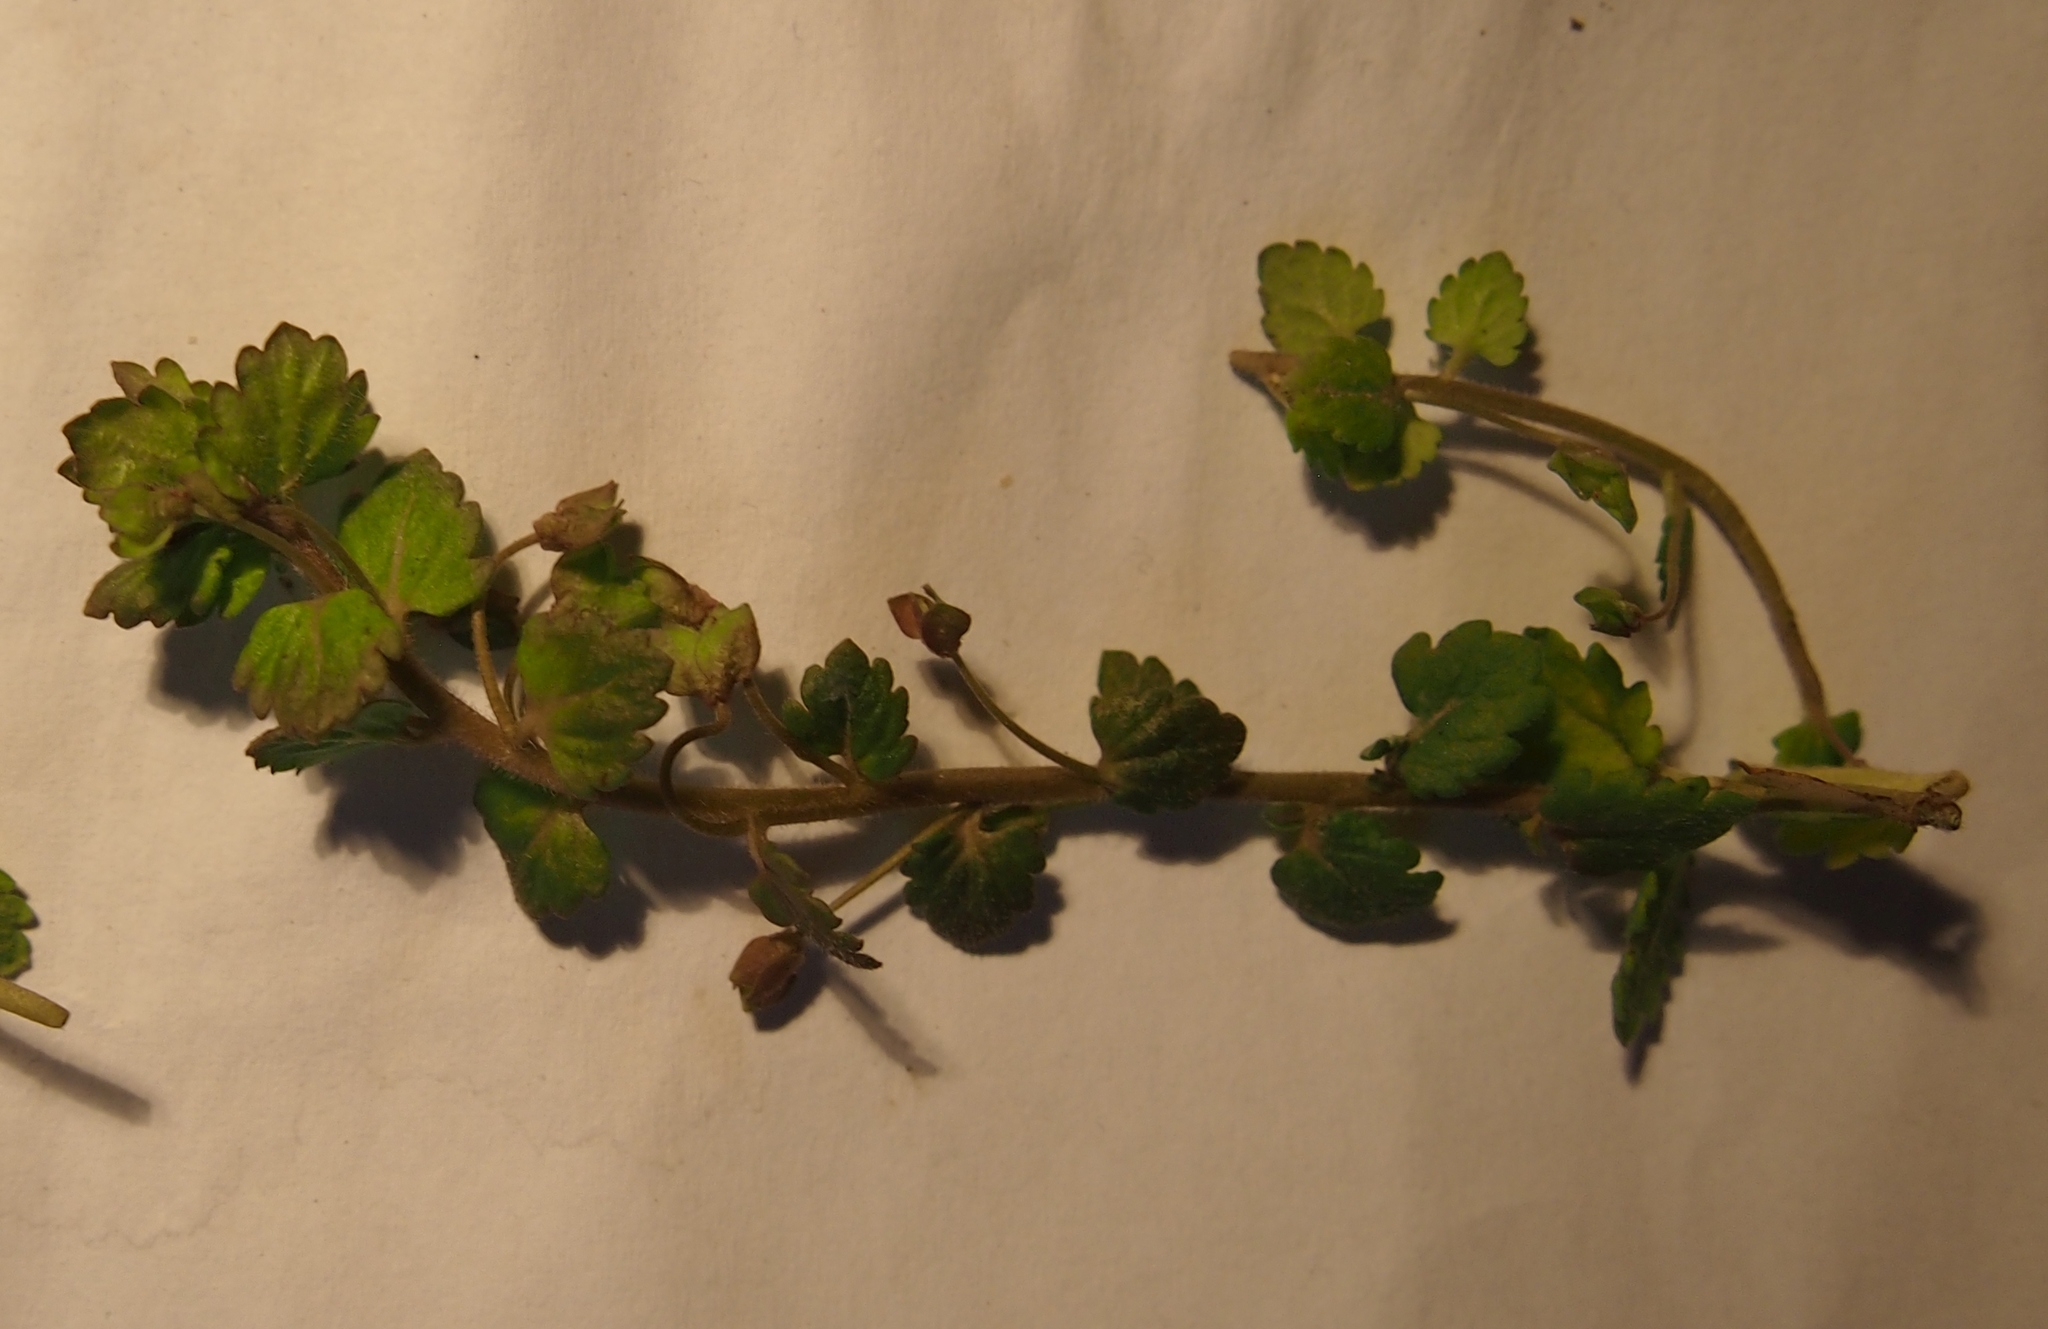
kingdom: Plantae
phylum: Tracheophyta
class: Magnoliopsida
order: Lamiales
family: Plantaginaceae
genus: Veronica
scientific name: Veronica polita
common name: Grey field-speedwell
